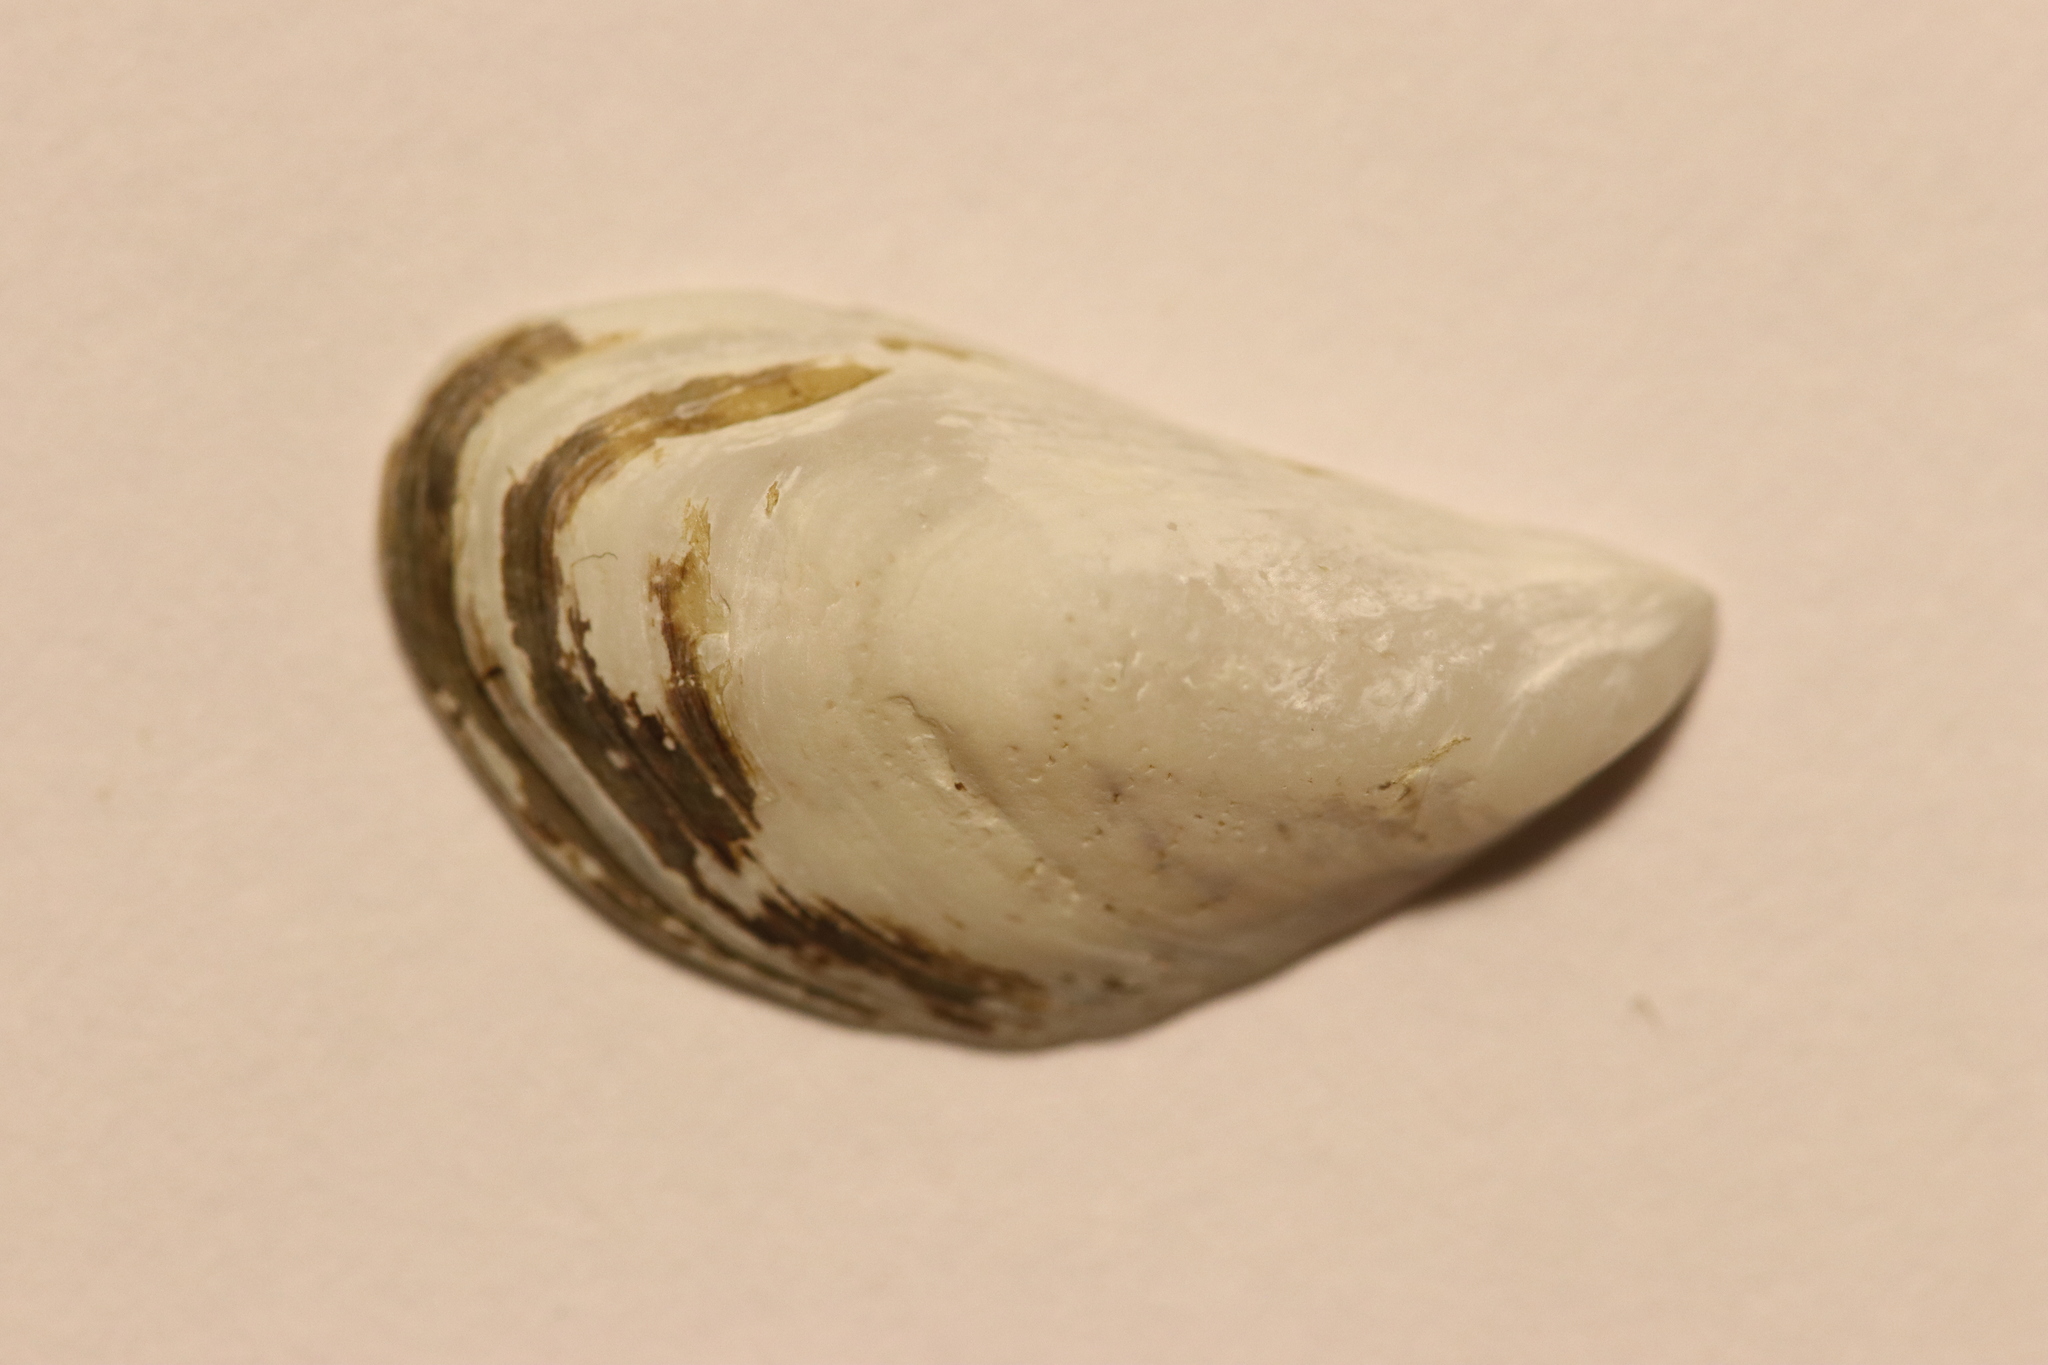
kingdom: Animalia
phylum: Mollusca
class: Bivalvia
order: Myida
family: Dreissenidae
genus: Dreissena
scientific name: Dreissena bugensis
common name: Quagga mussel
